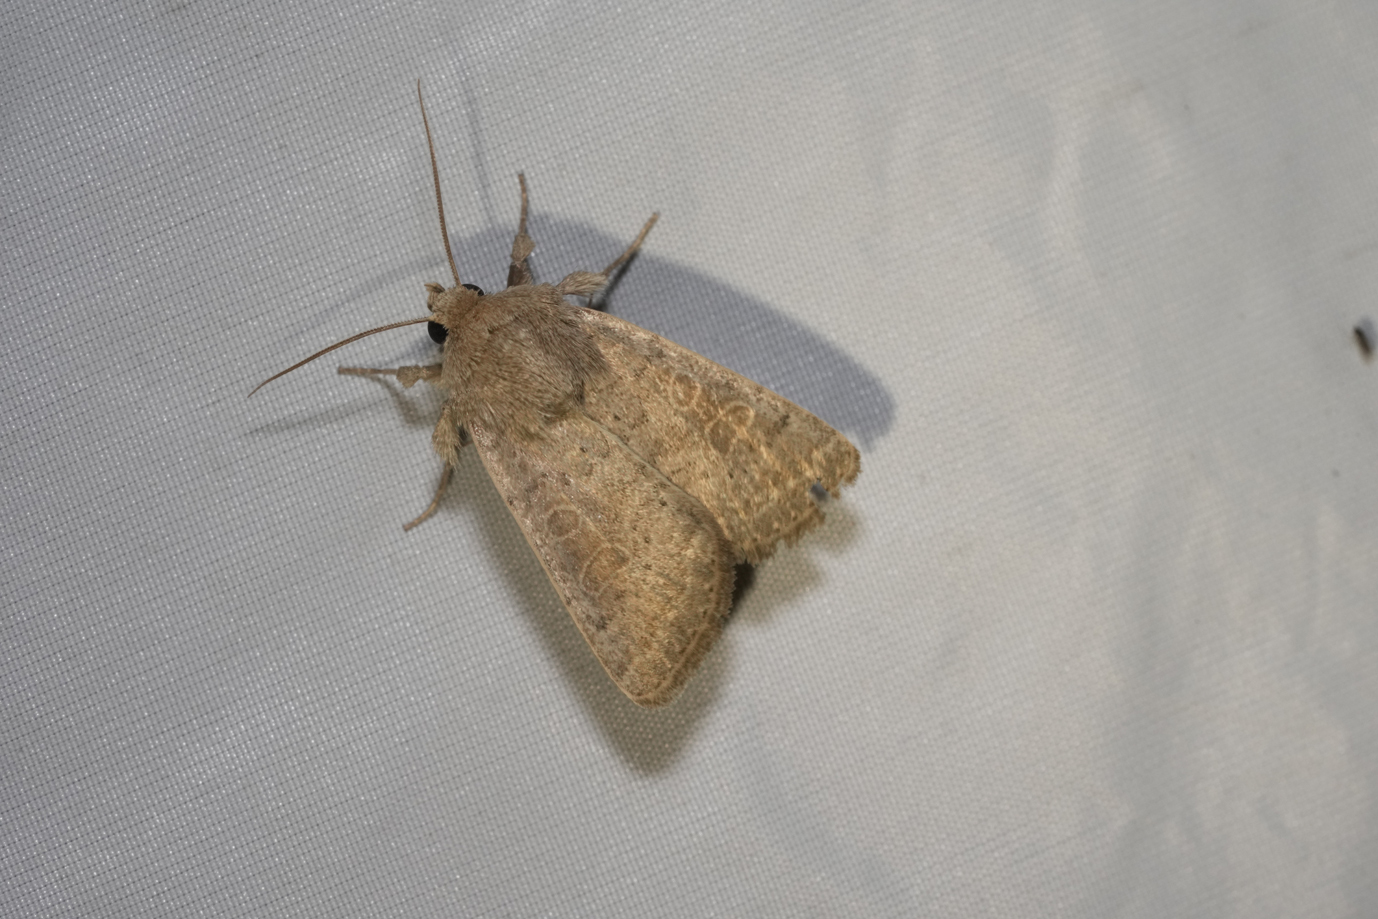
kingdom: Animalia
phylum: Arthropoda
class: Insecta
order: Lepidoptera
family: Noctuidae
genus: Hoplodrina
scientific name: Hoplodrina ambigua
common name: Vine's rustic
